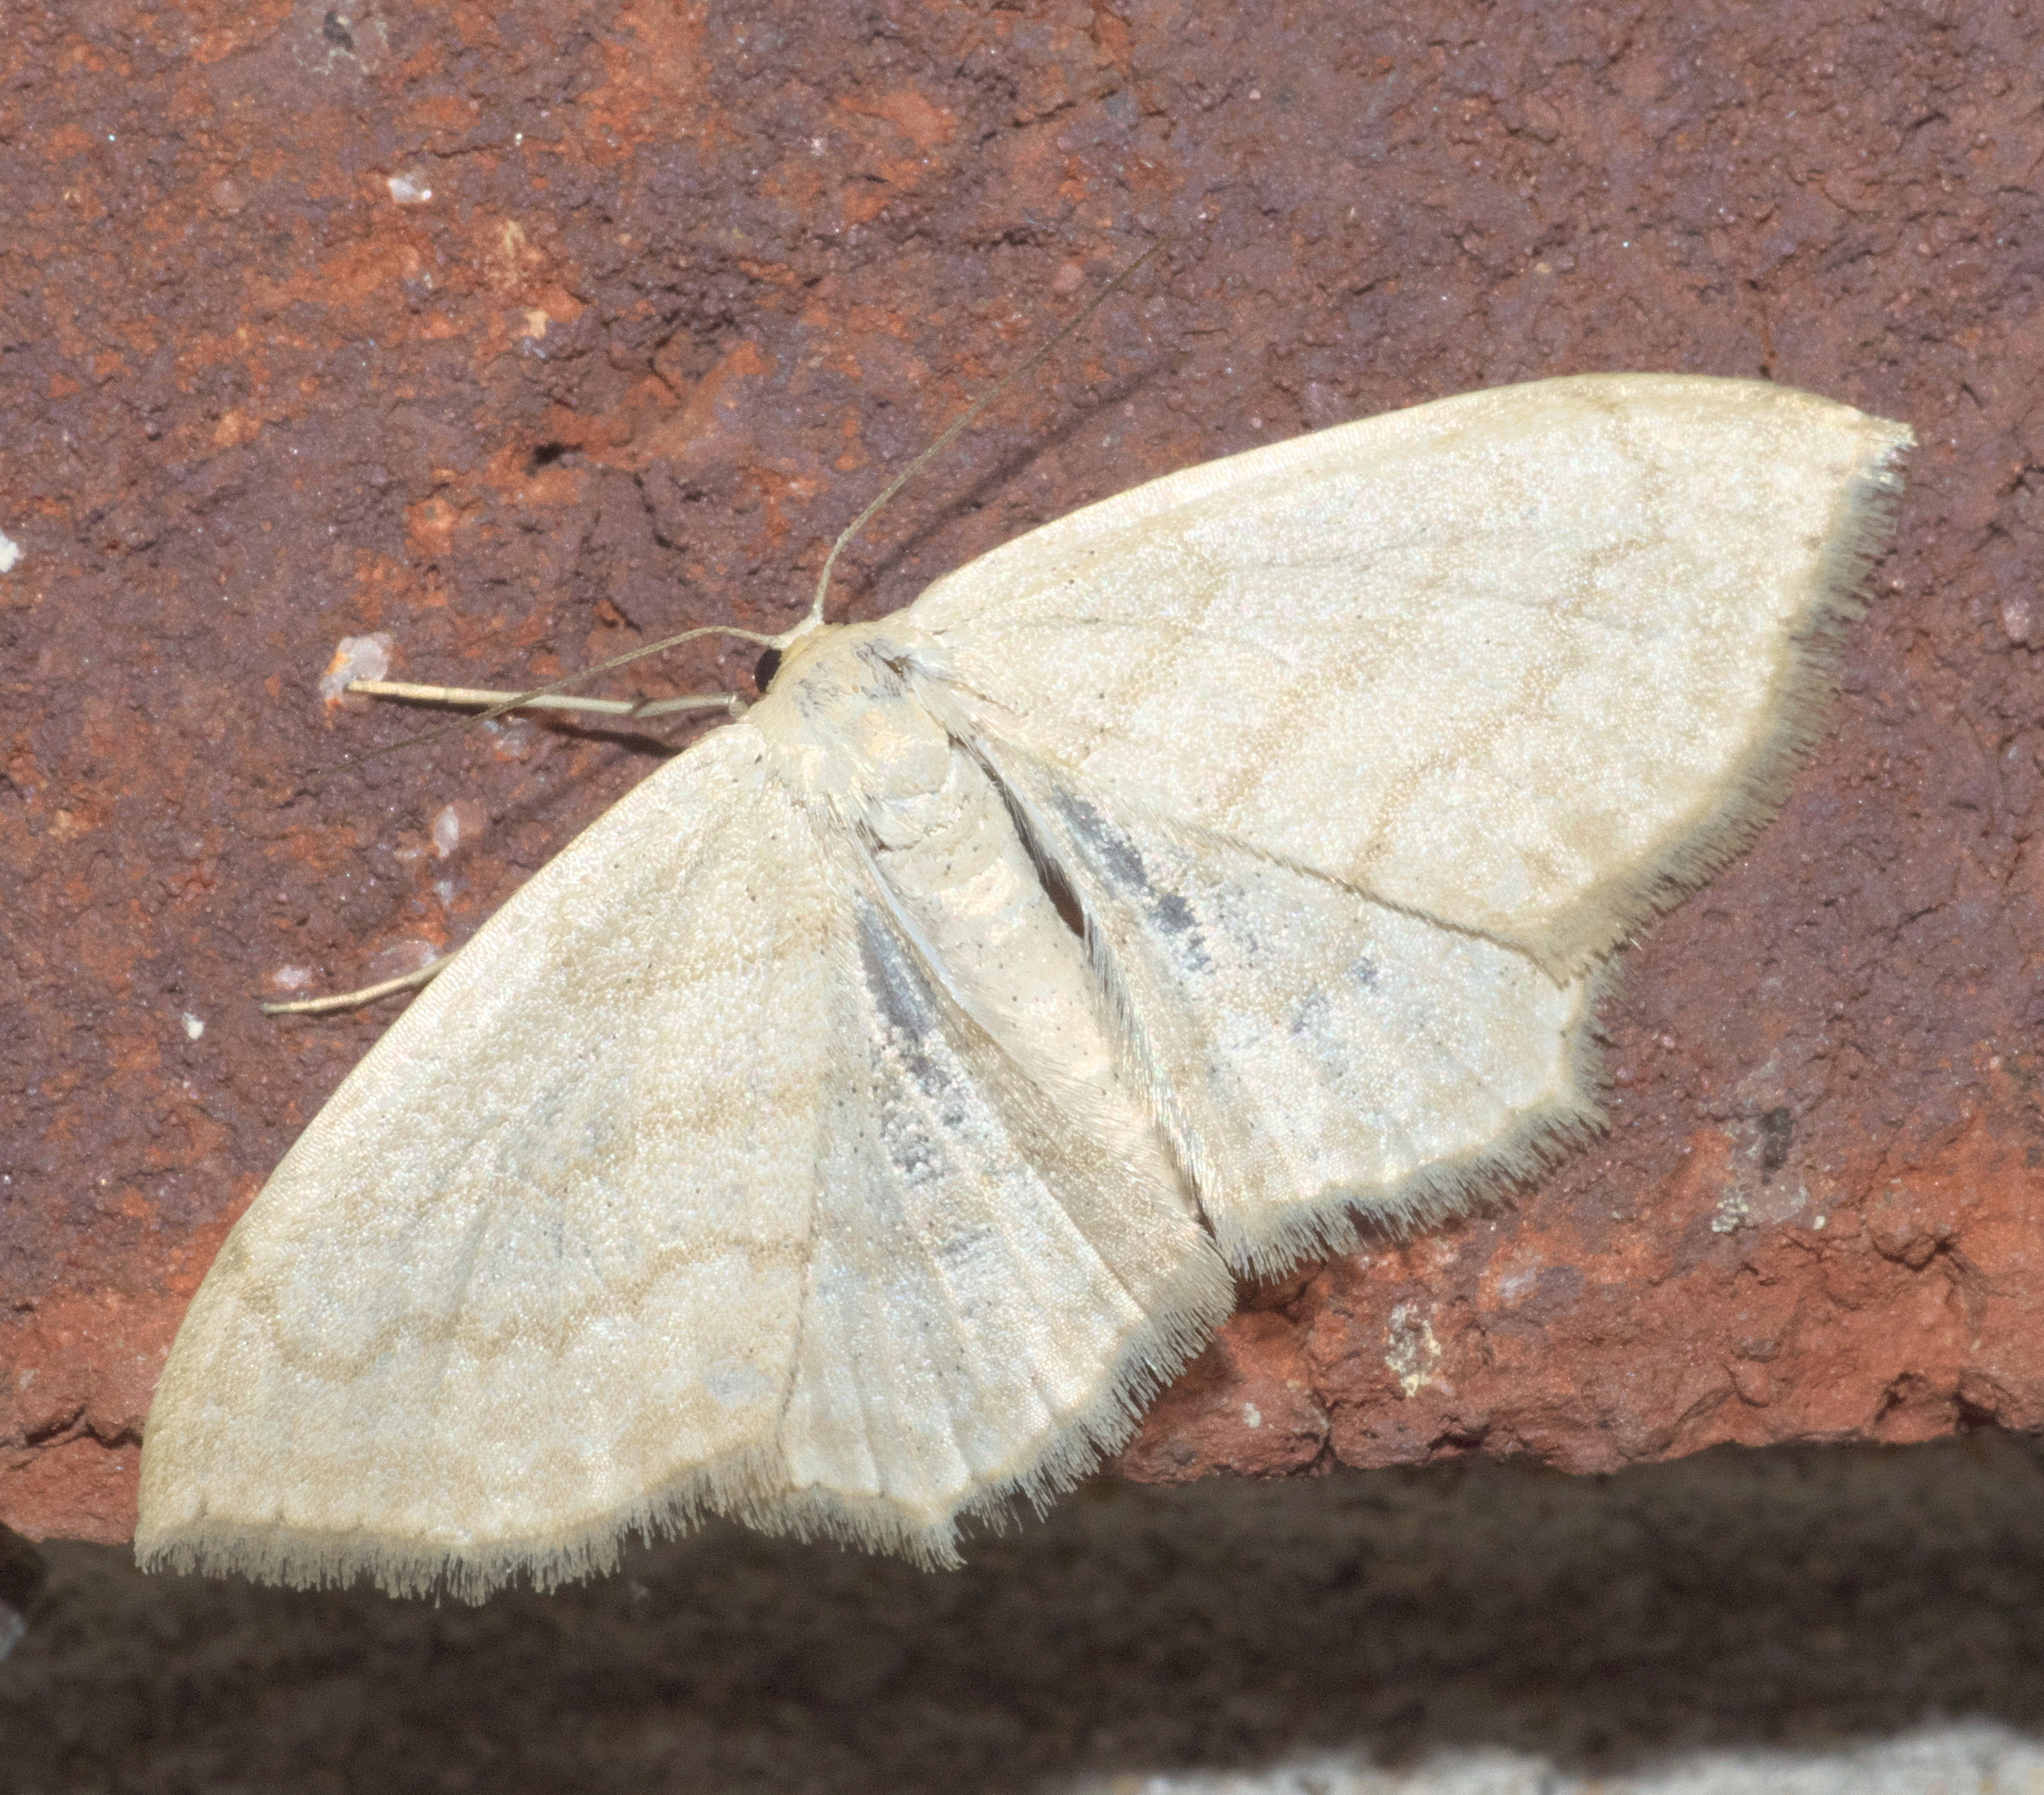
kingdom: Animalia
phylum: Arthropoda
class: Insecta
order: Lepidoptera
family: Geometridae
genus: Scopula
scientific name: Scopula limboundata
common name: Large lace border
